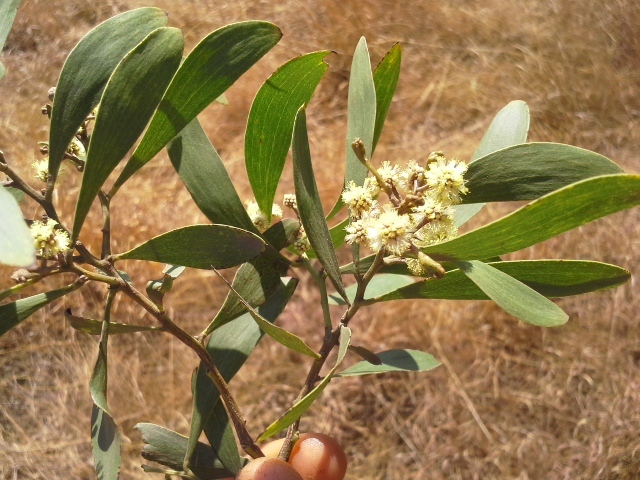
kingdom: Plantae
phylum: Tracheophyta
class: Magnoliopsida
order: Fabales
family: Fabaceae
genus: Acacia
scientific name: Acacia melanoxylon
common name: Blackwood
